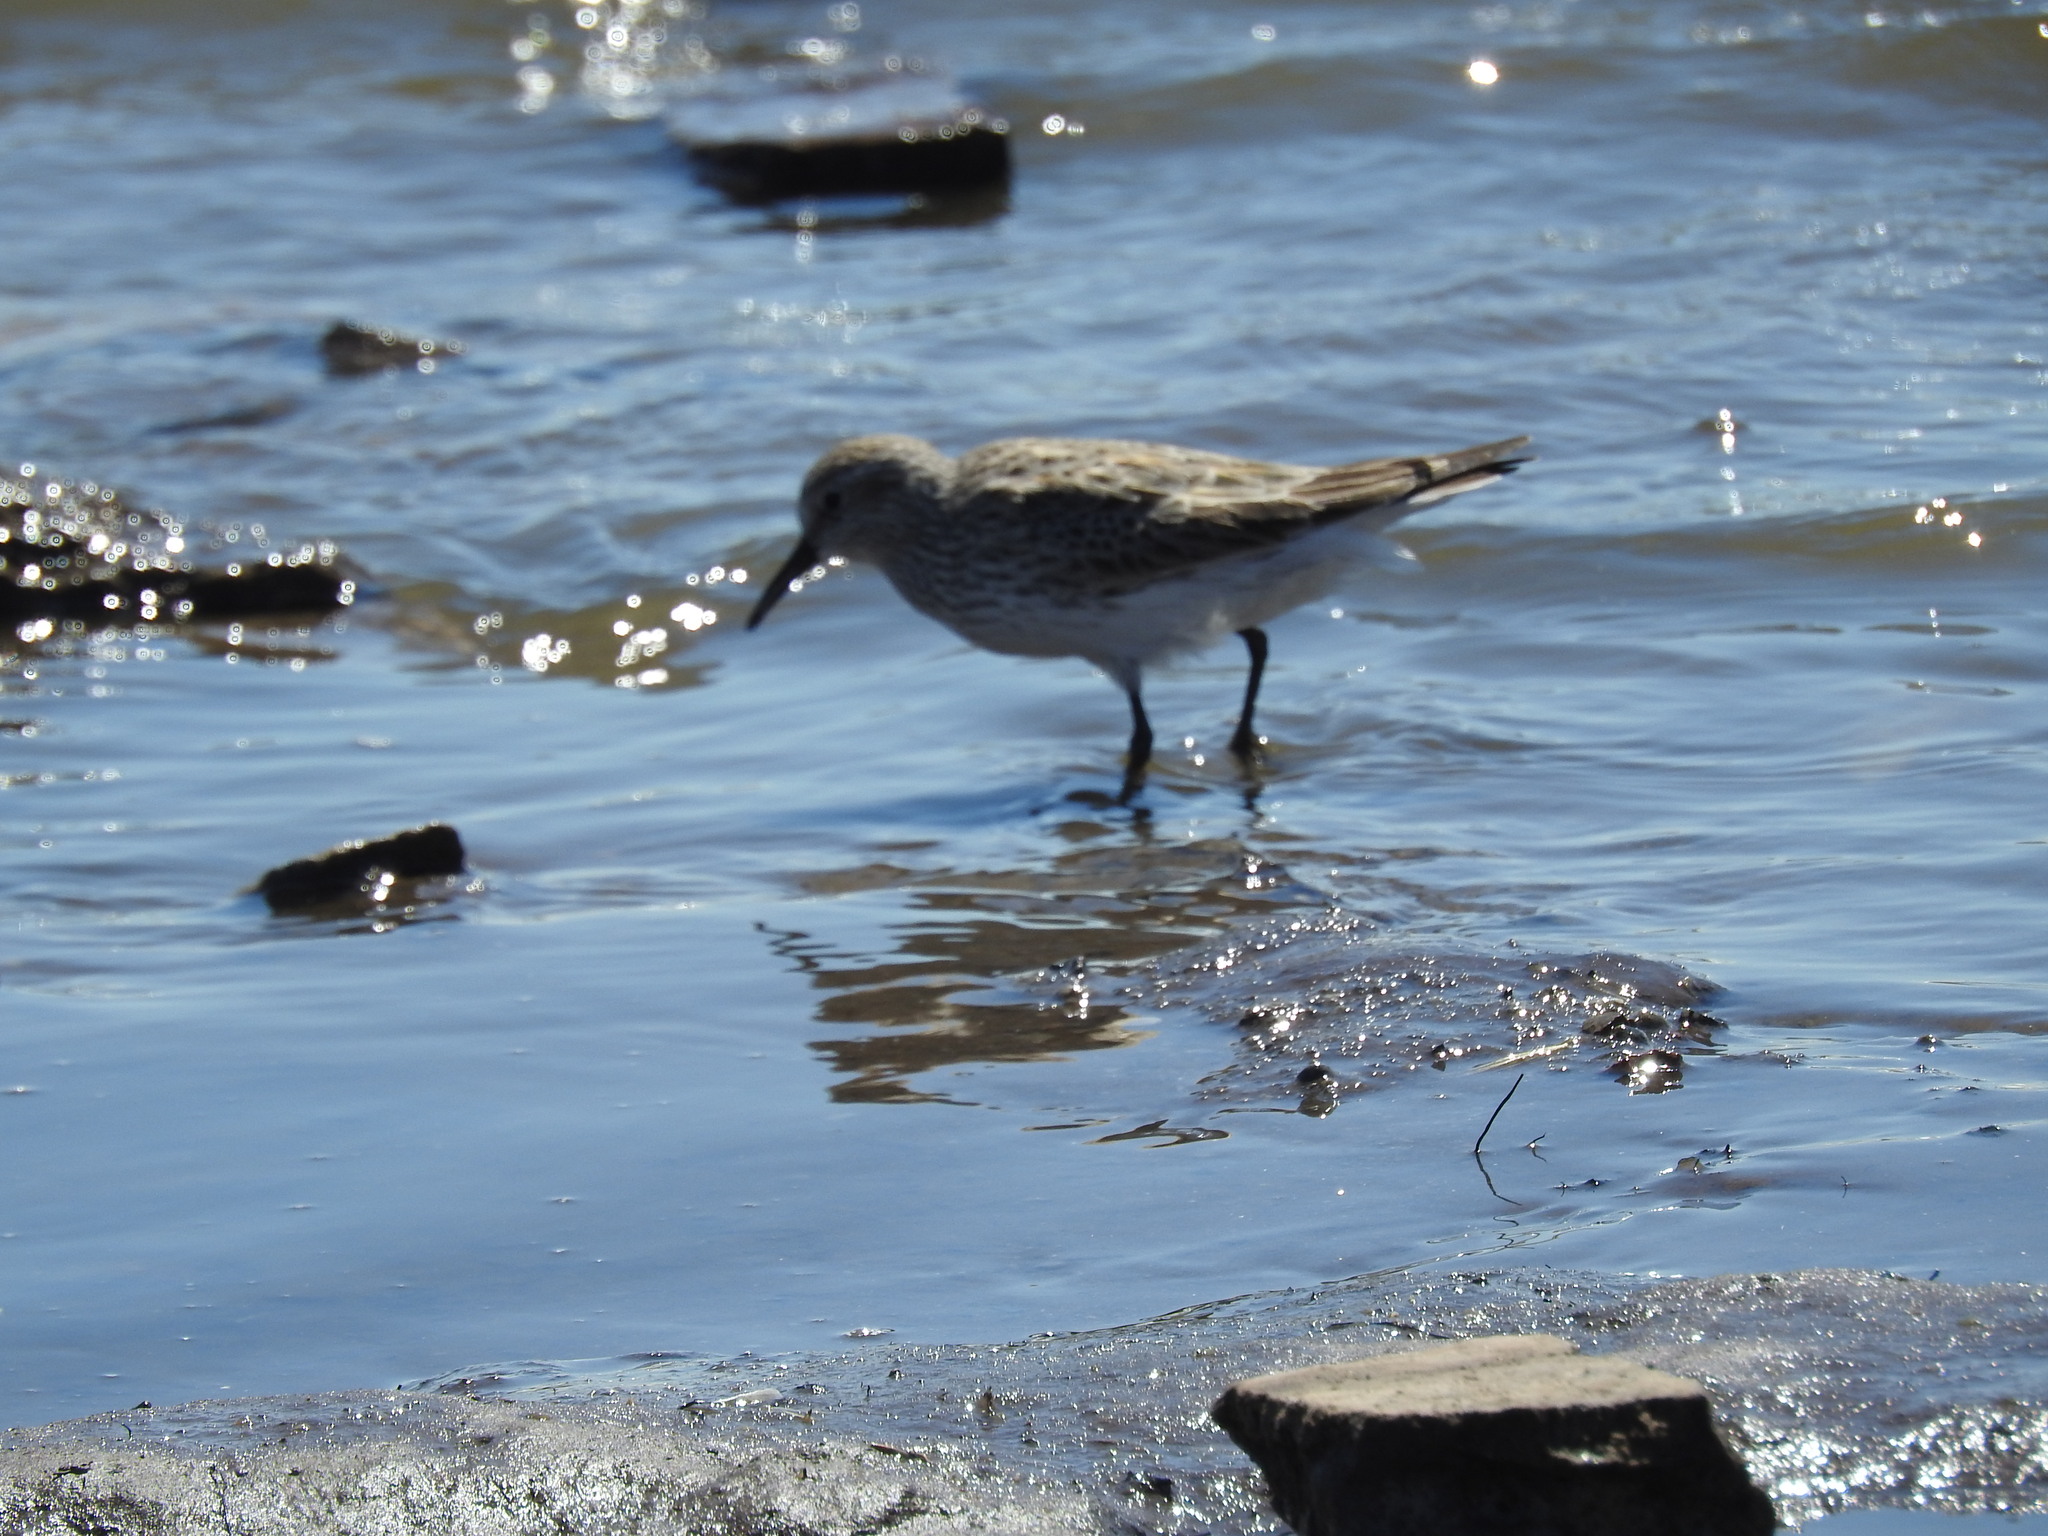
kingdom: Animalia
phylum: Chordata
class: Aves
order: Charadriiformes
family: Scolopacidae
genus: Calidris
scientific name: Calidris fuscicollis
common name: White-rumped sandpiper
